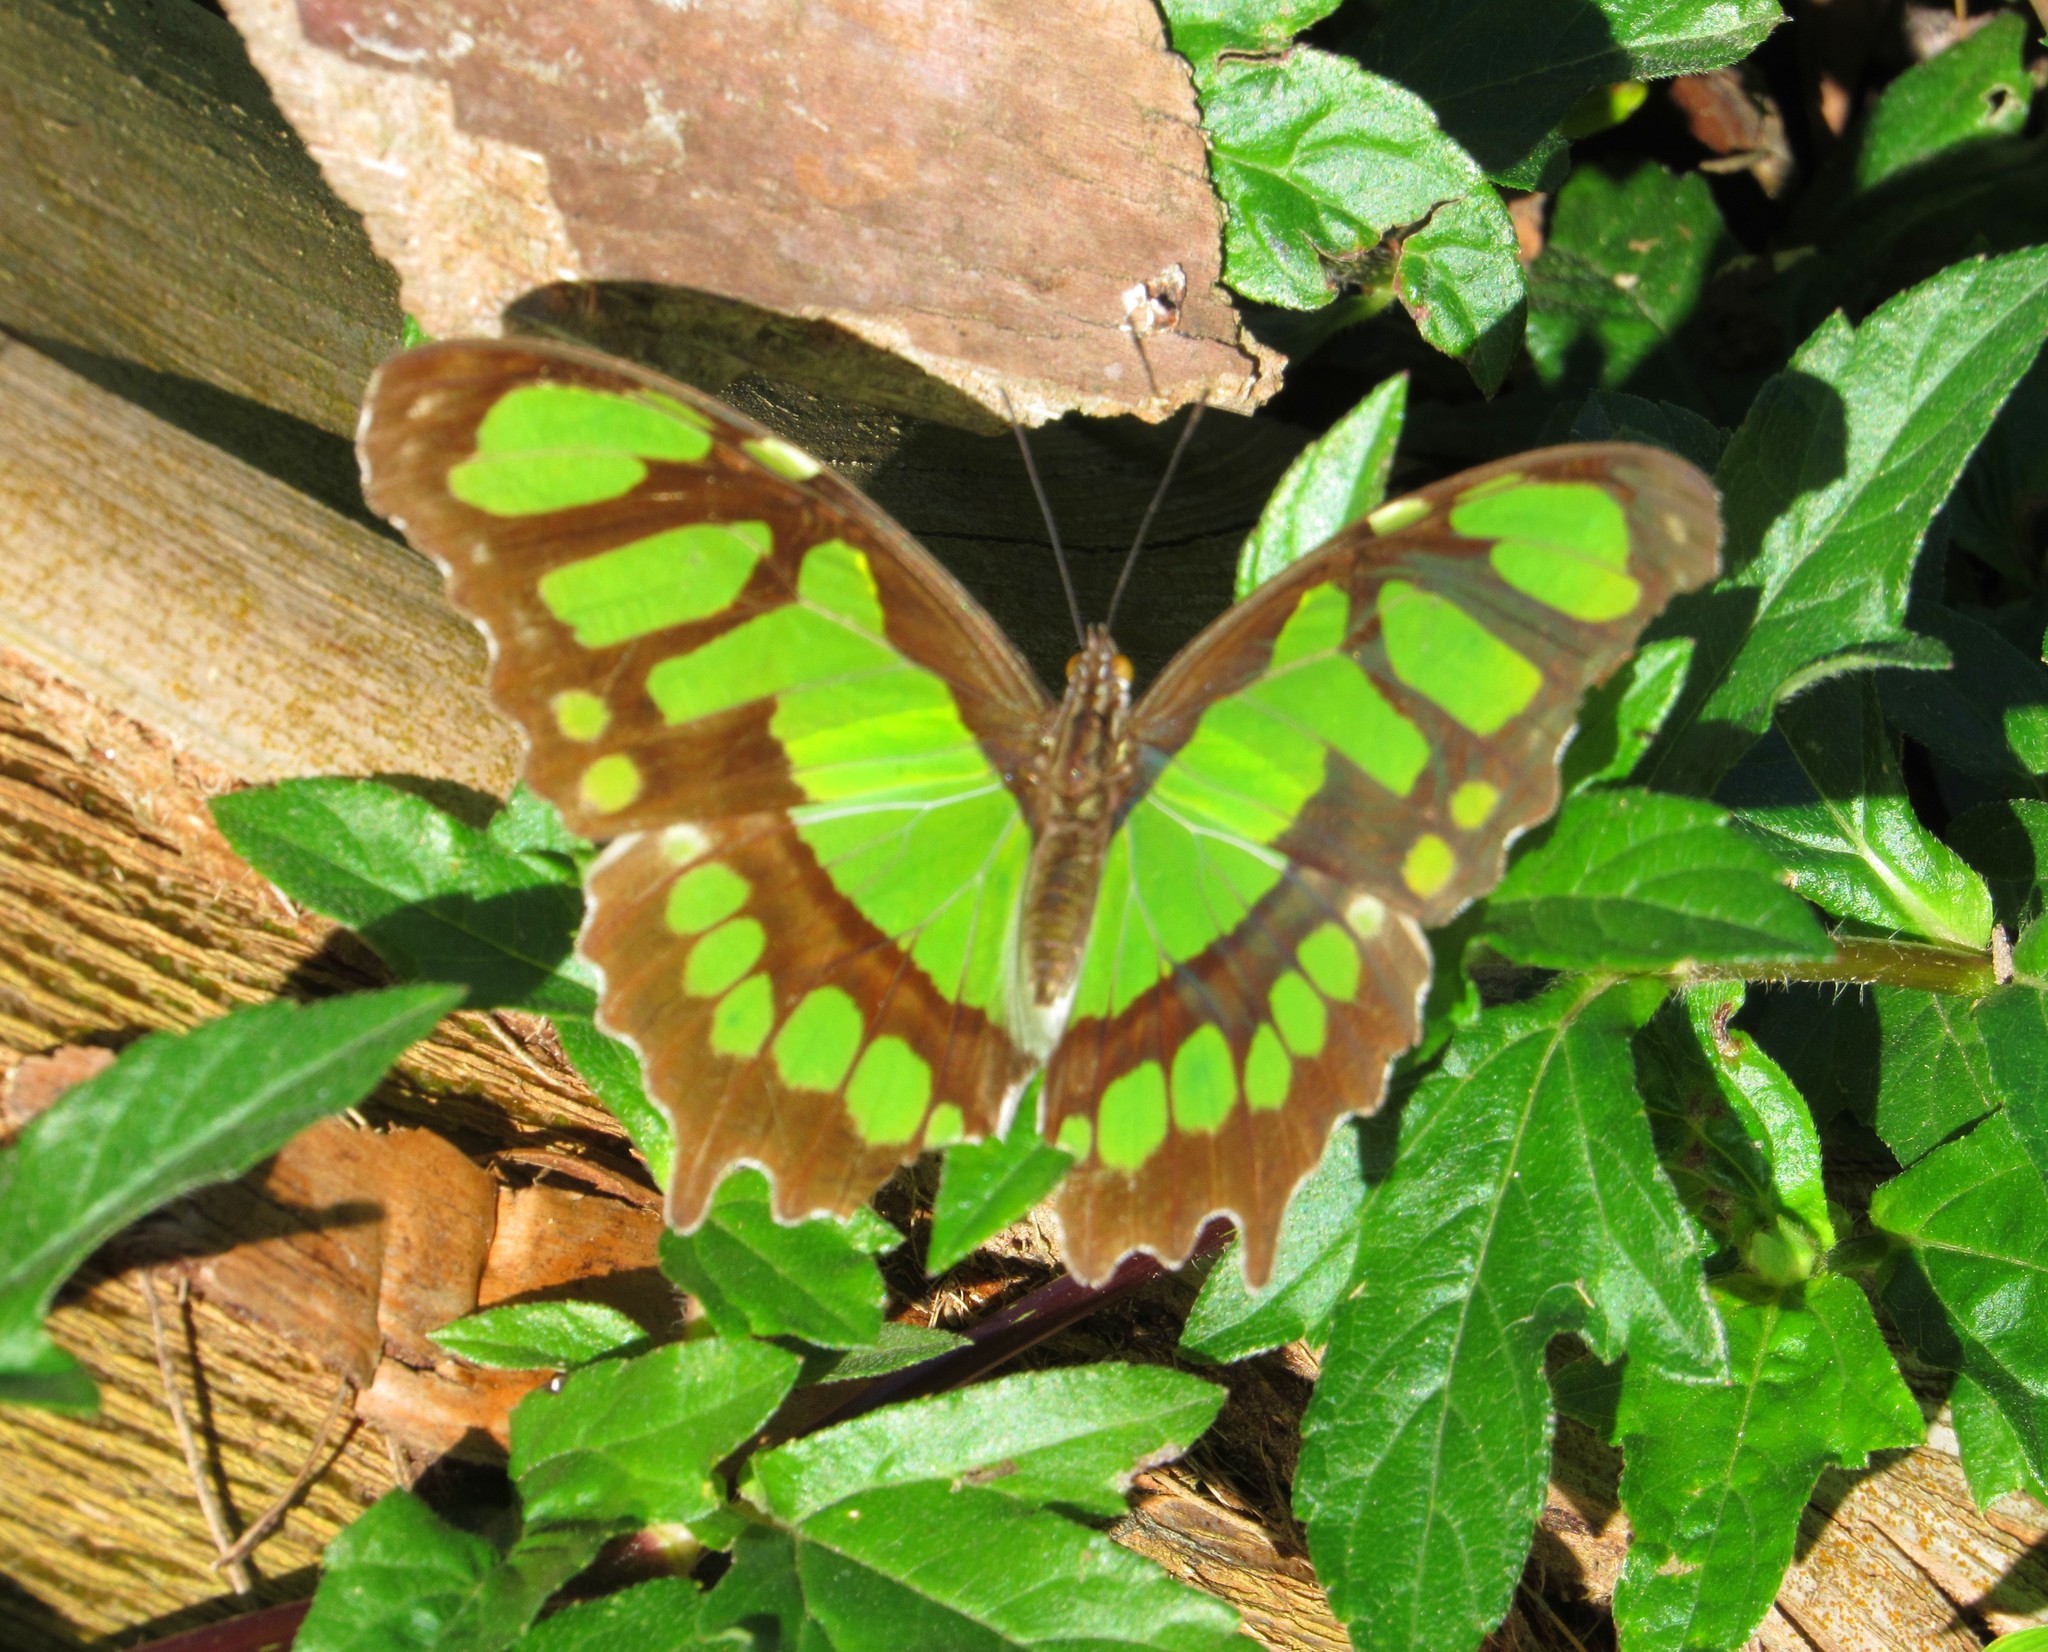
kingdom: Animalia
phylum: Arthropoda
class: Insecta
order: Lepidoptera
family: Nymphalidae
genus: Siproeta
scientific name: Siproeta stelenes
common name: Malachite
